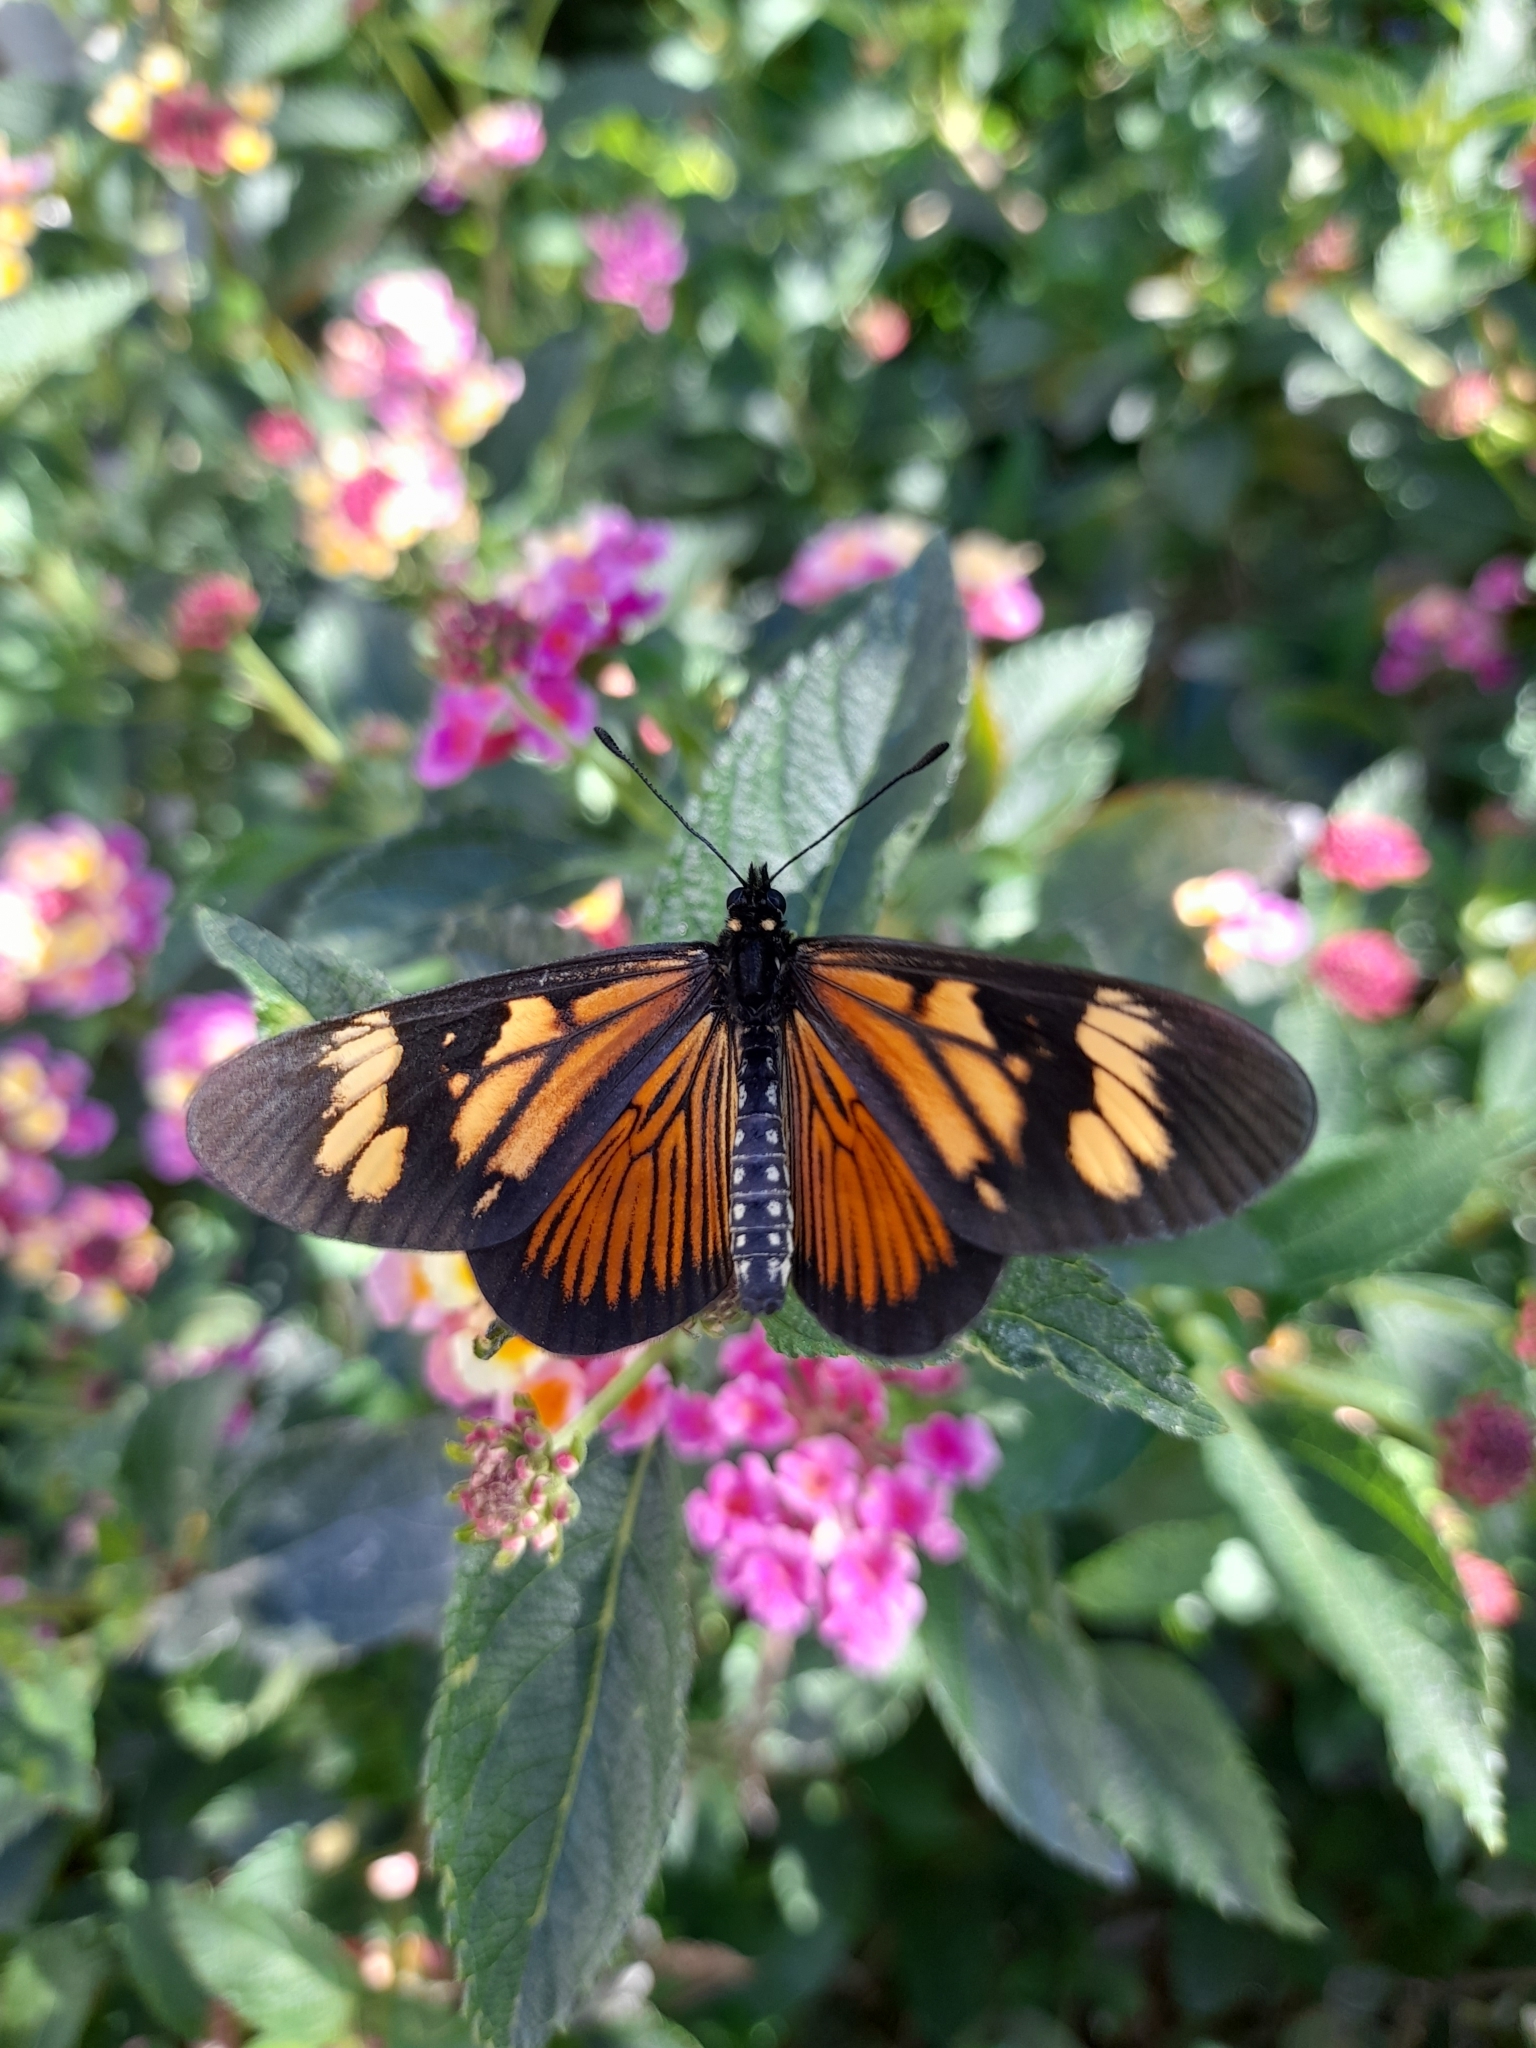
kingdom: Animalia
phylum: Arthropoda
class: Insecta
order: Lepidoptera
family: Nymphalidae
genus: Actinote
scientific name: Actinote pellenea
